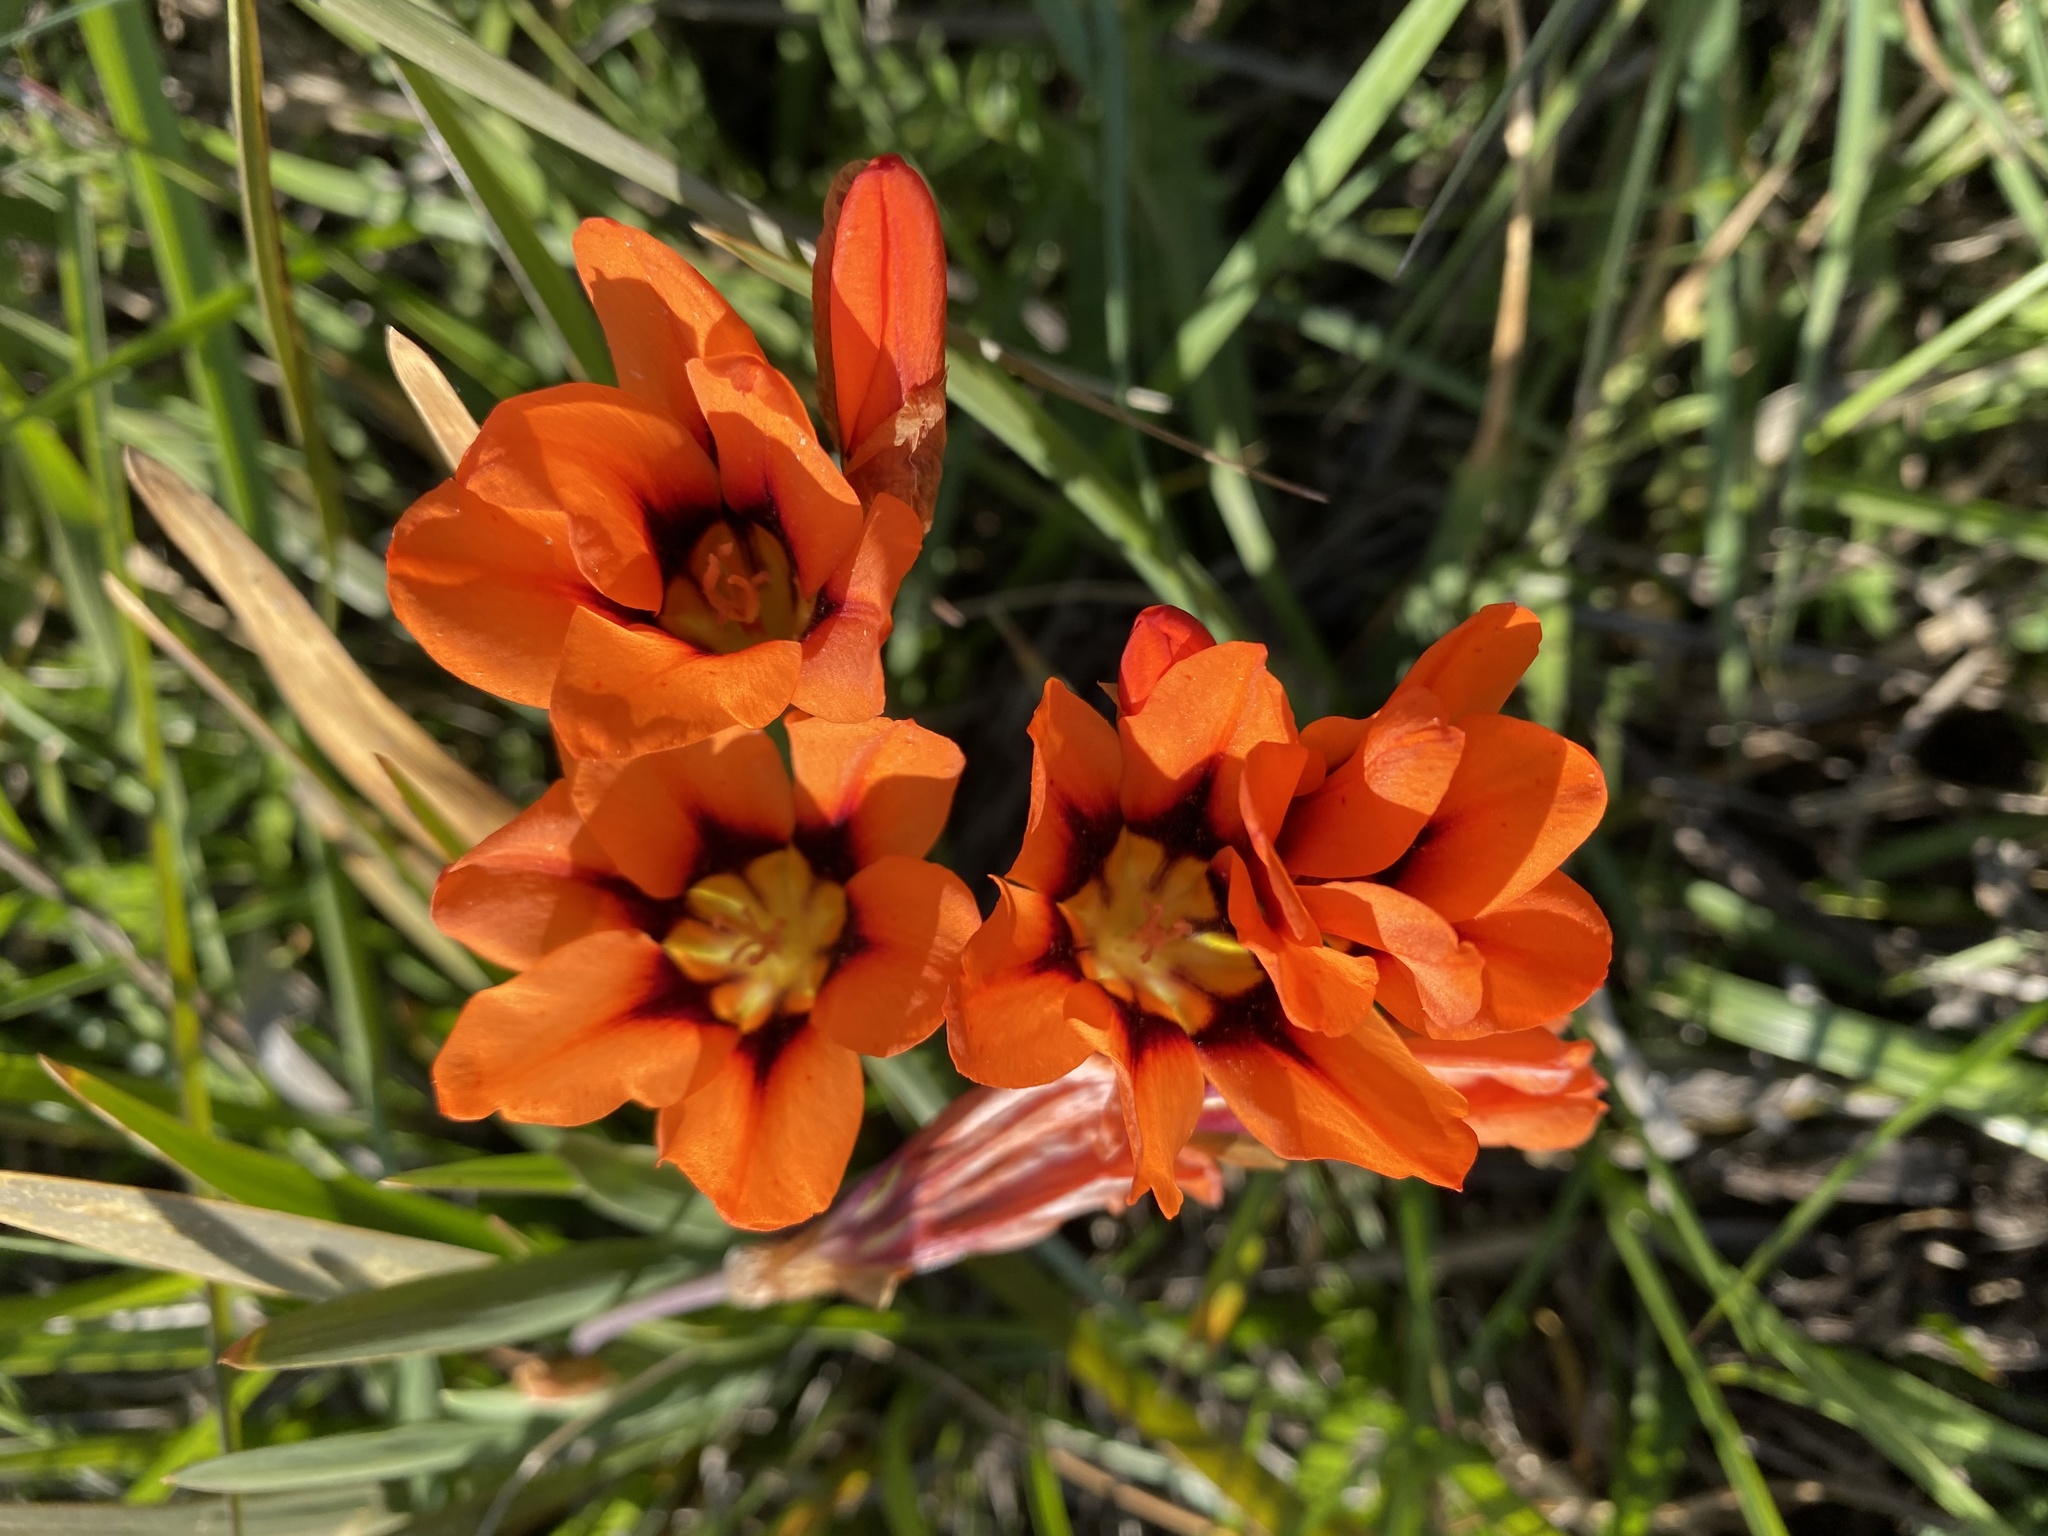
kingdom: Plantae
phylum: Tracheophyta
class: Liliopsida
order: Asparagales
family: Iridaceae
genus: Sparaxis
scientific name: Sparaxis tricolor
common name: Wandflower
